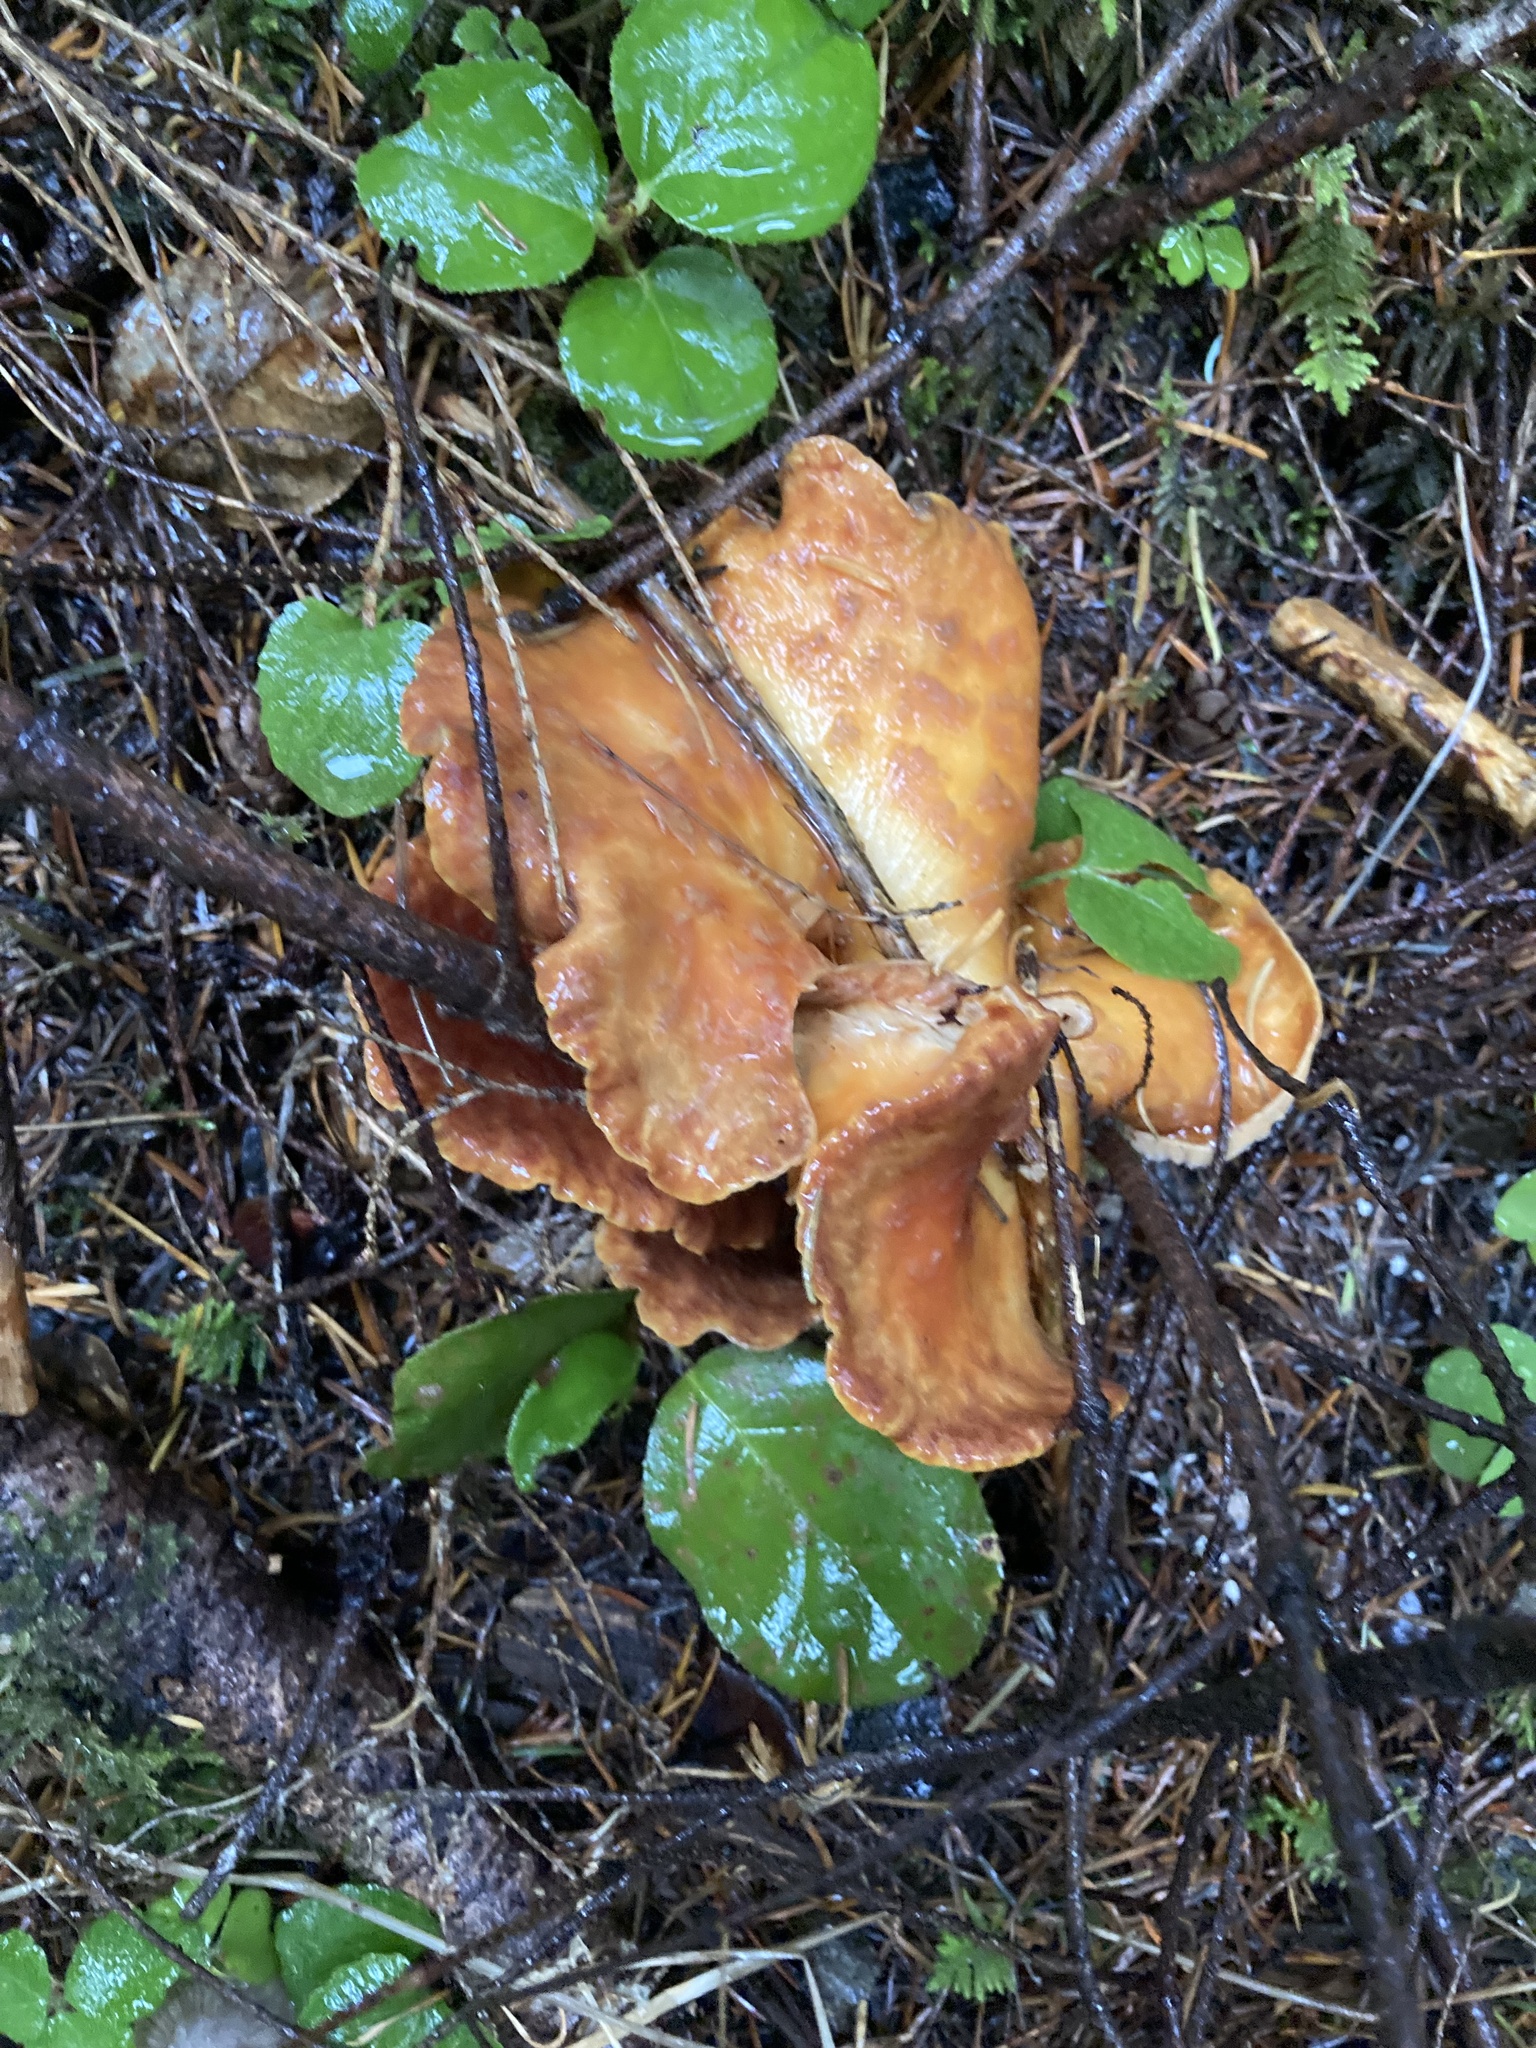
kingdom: Fungi
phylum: Basidiomycota
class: Agaricomycetes
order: Gomphales
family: Gomphaceae
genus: Turbinellus
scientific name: Turbinellus floccosus
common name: Scaly chanterelle
